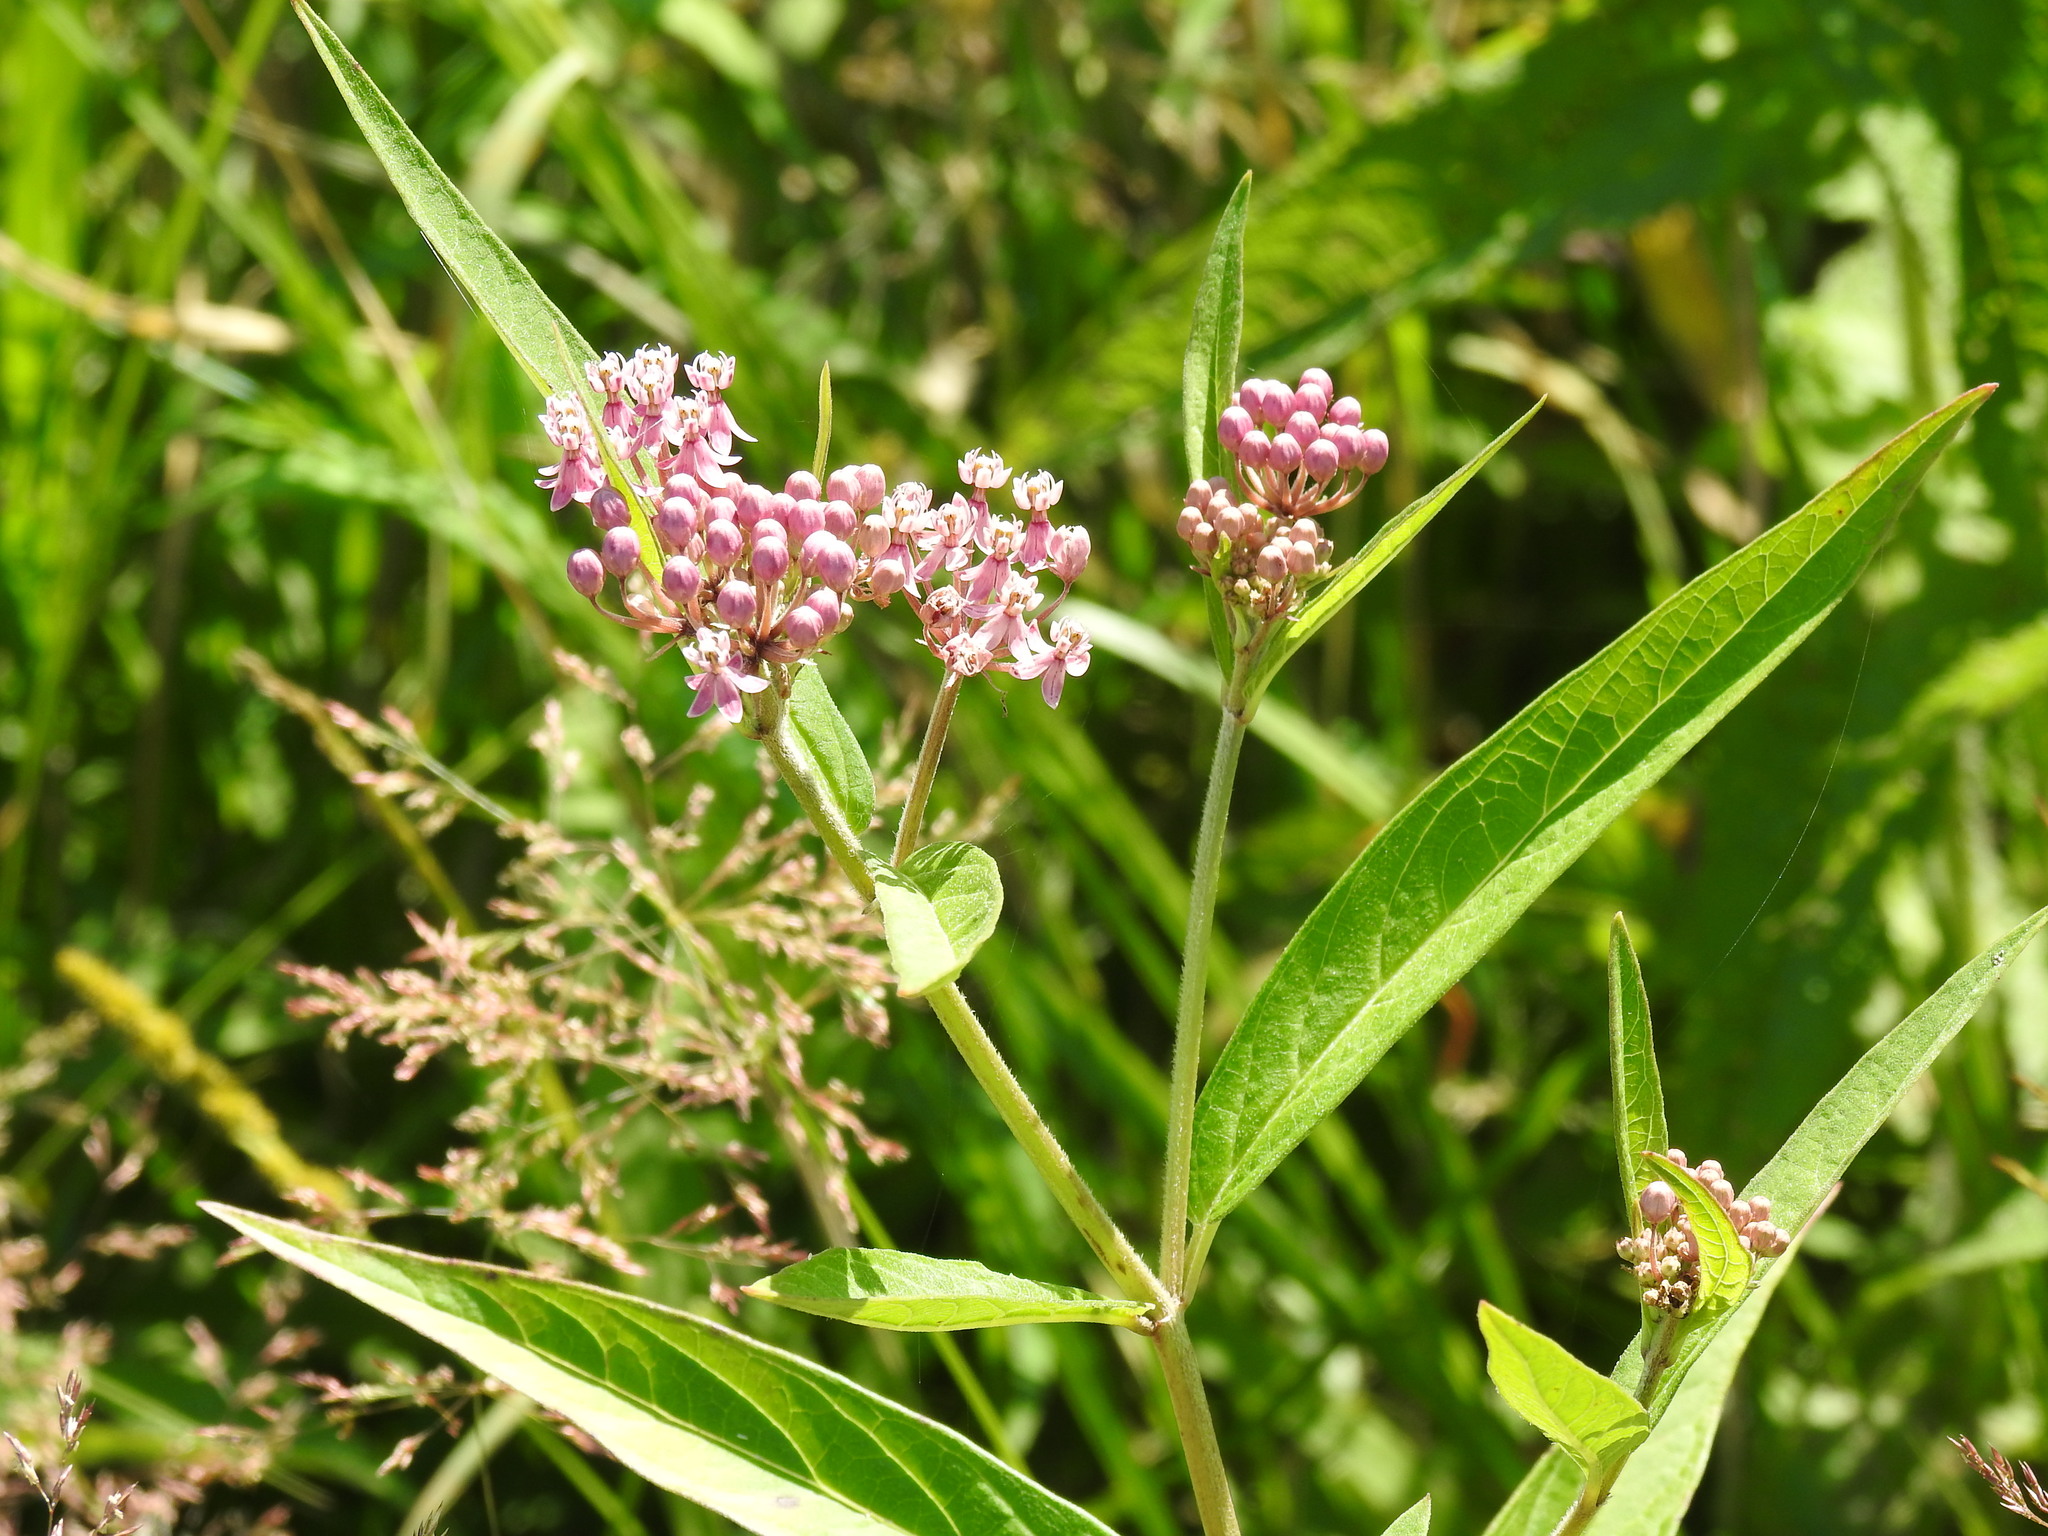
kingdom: Plantae
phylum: Tracheophyta
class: Magnoliopsida
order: Gentianales
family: Apocynaceae
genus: Asclepias
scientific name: Asclepias incarnata
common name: Swamp milkweed
